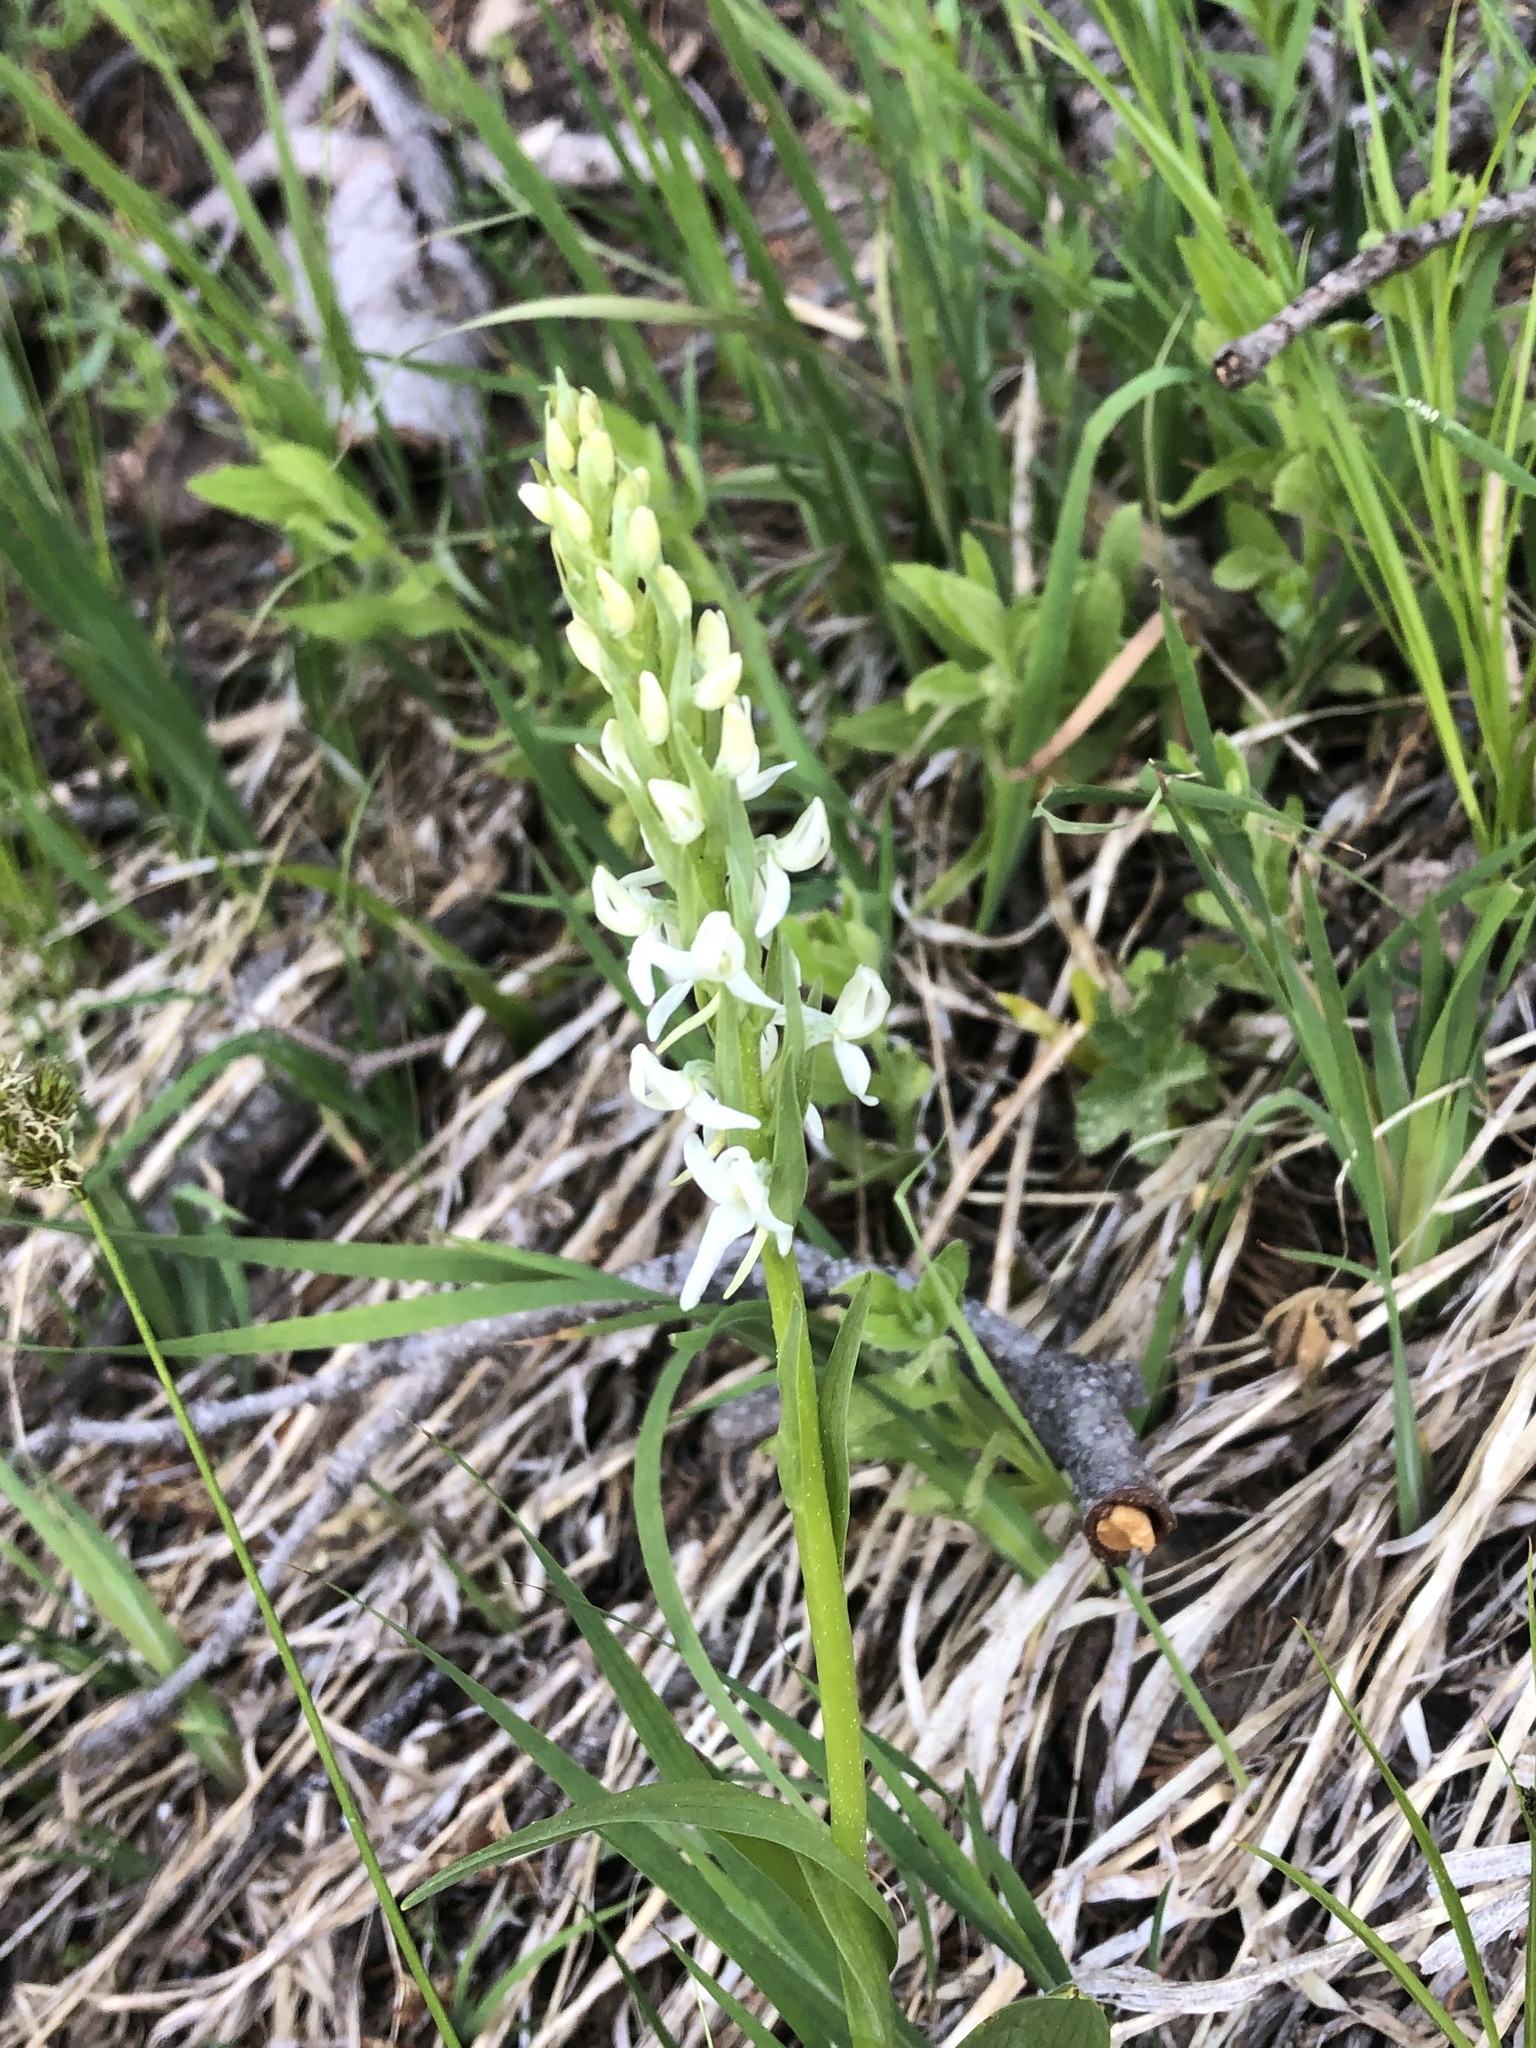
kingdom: Plantae
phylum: Tracheophyta
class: Liliopsida
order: Asparagales
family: Orchidaceae
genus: Platanthera
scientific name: Platanthera dilatata
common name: Bog candles
